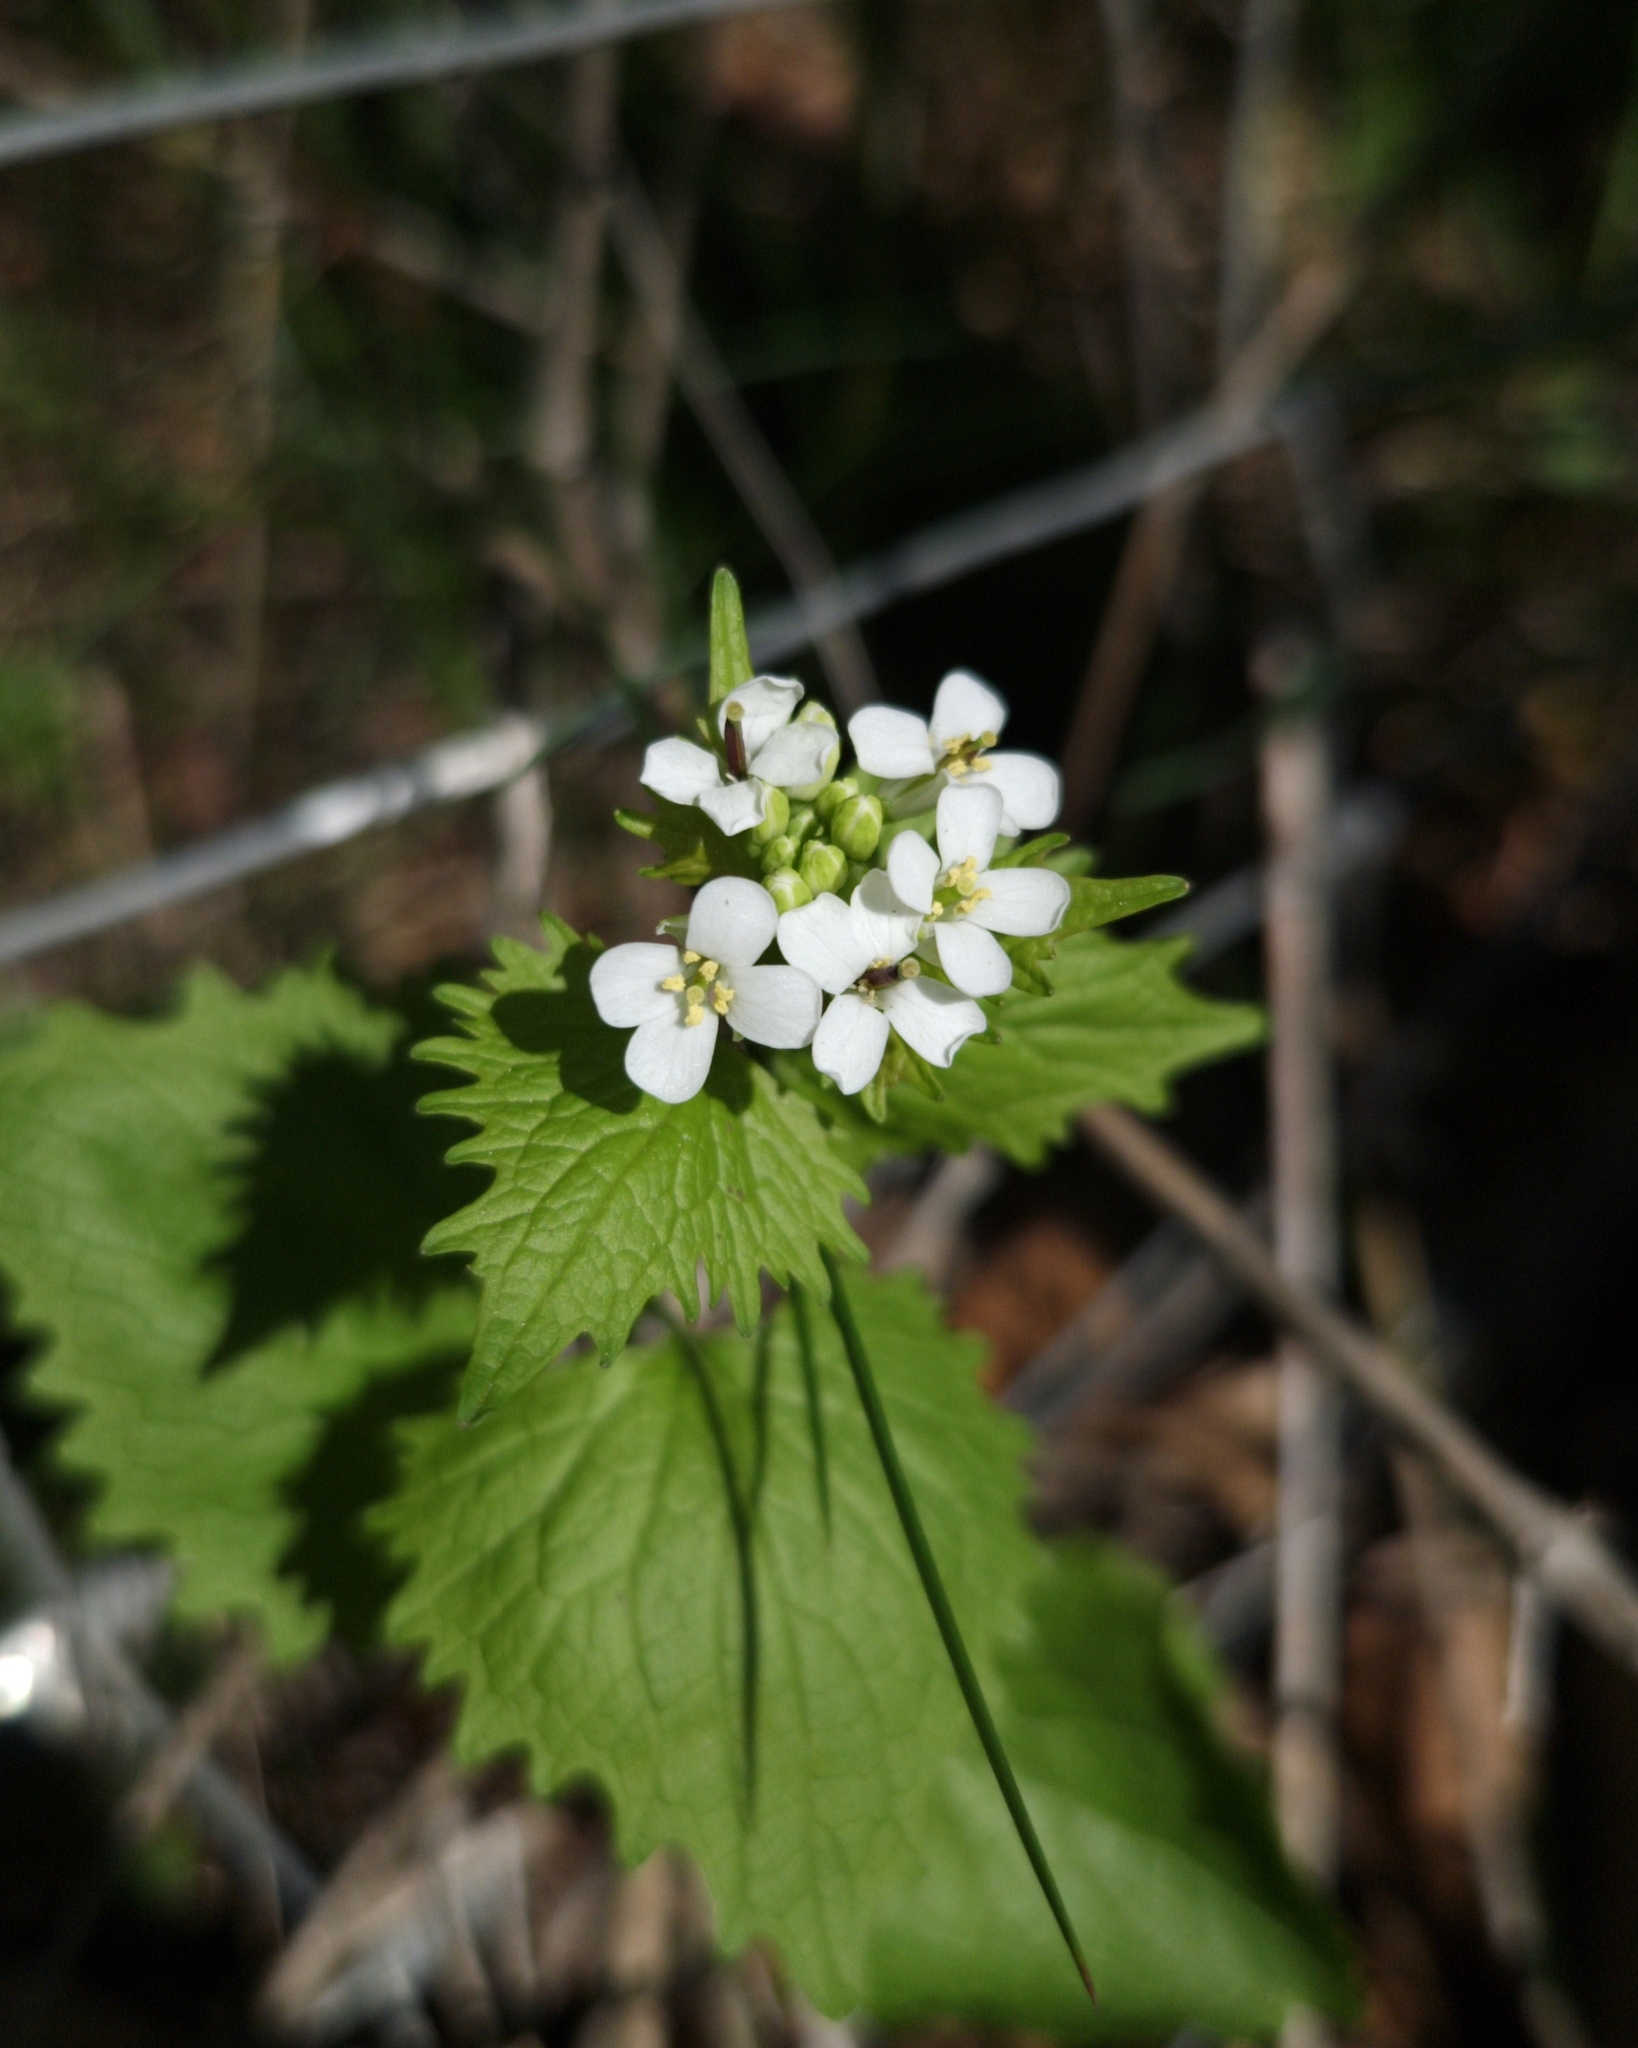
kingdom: Plantae
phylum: Tracheophyta
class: Magnoliopsida
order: Brassicales
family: Brassicaceae
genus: Alliaria
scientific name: Alliaria petiolata
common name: Garlic mustard
